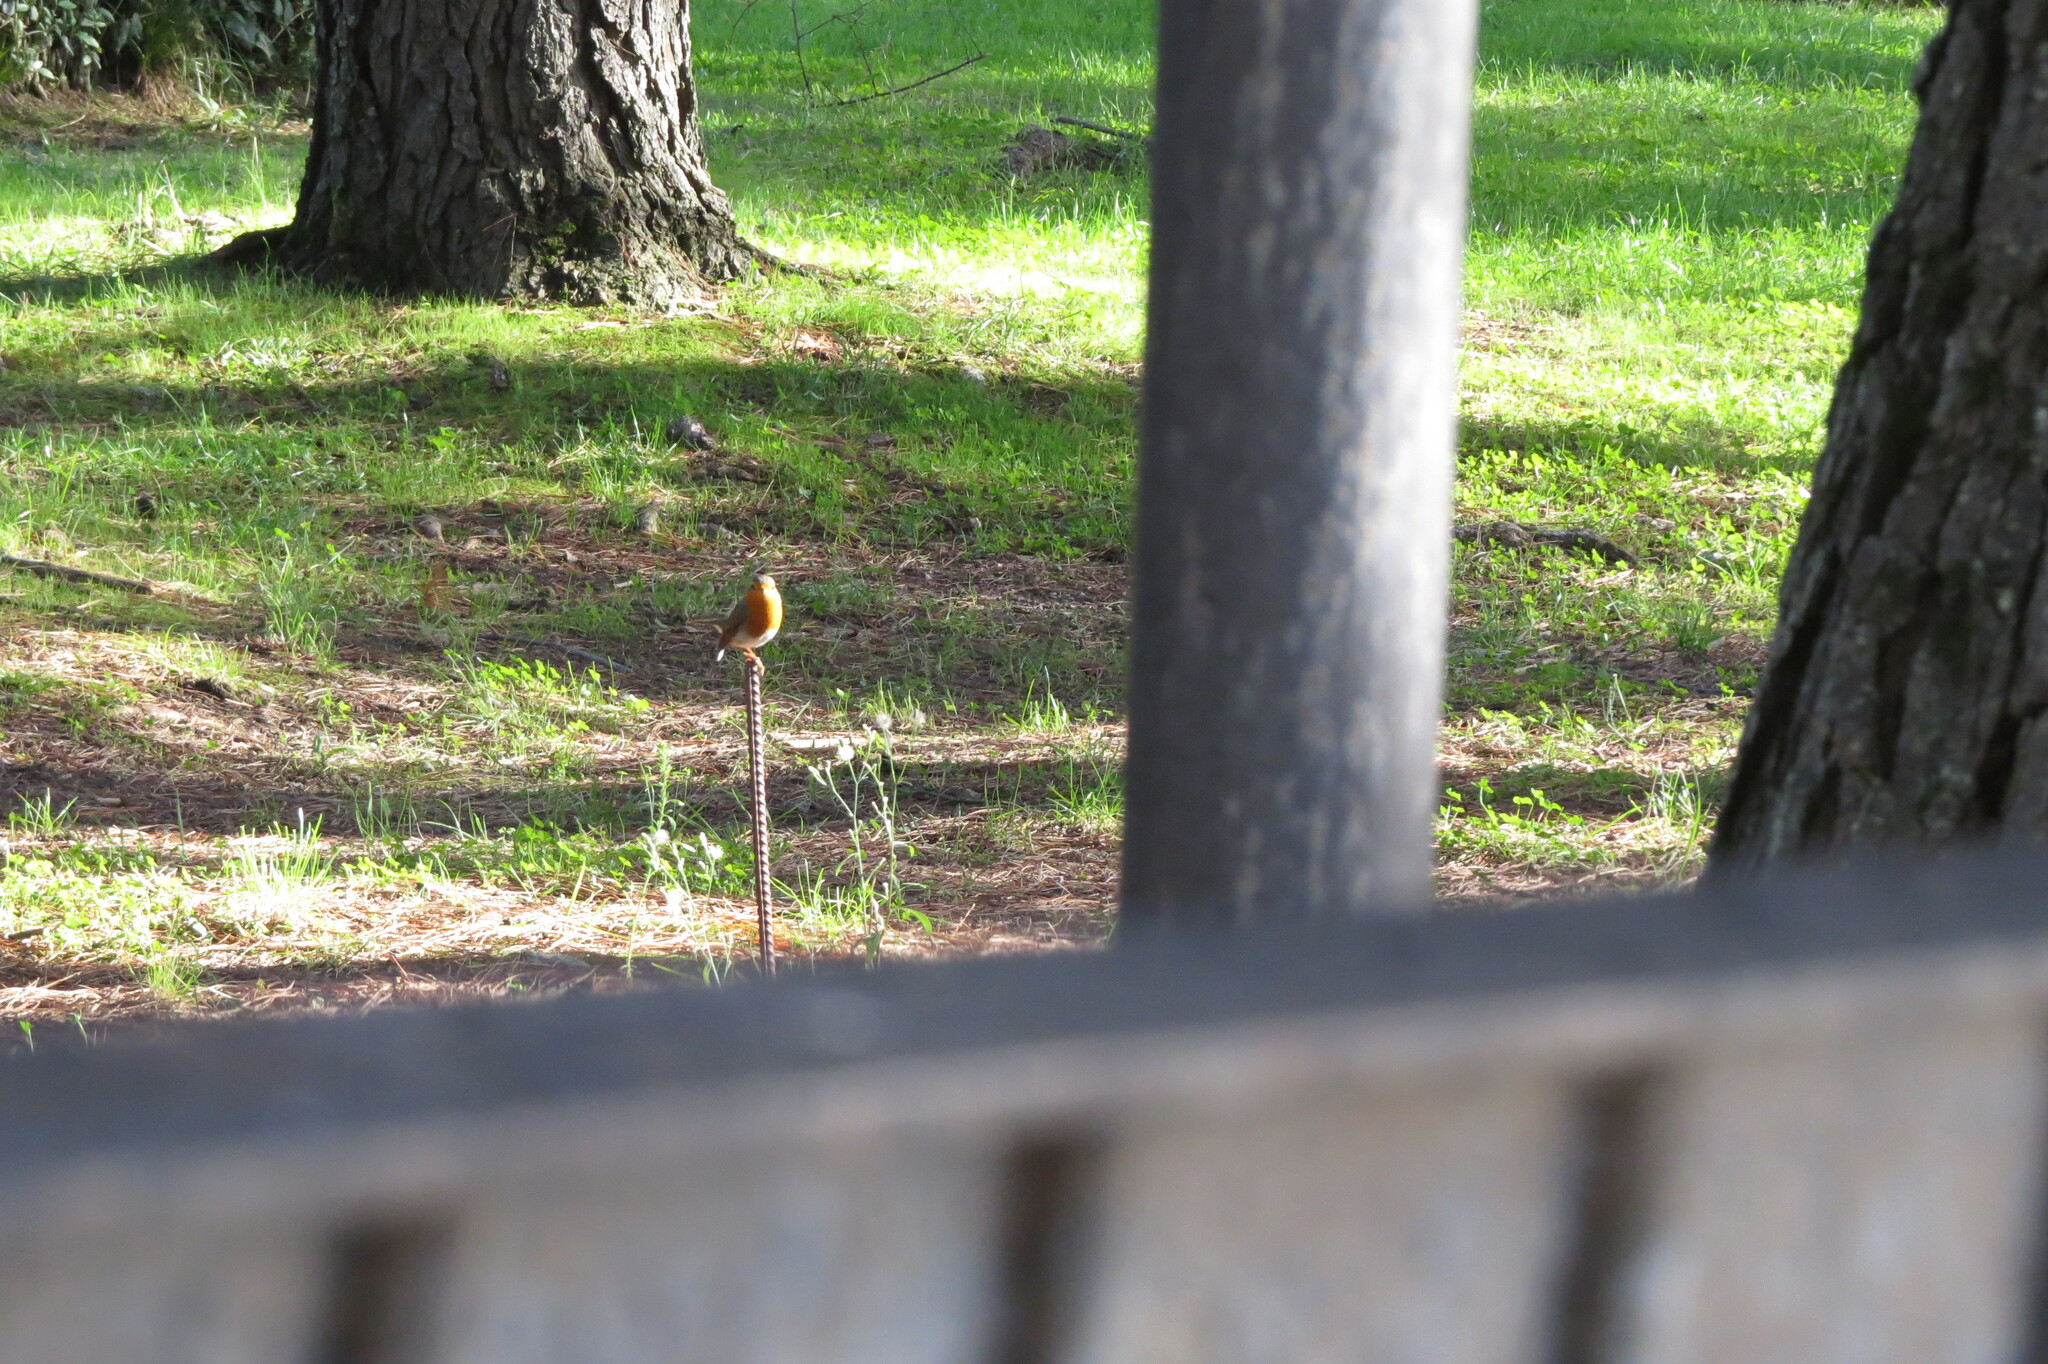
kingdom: Animalia
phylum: Chordata
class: Aves
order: Passeriformes
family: Muscicapidae
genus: Erithacus
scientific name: Erithacus rubecula
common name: European robin
